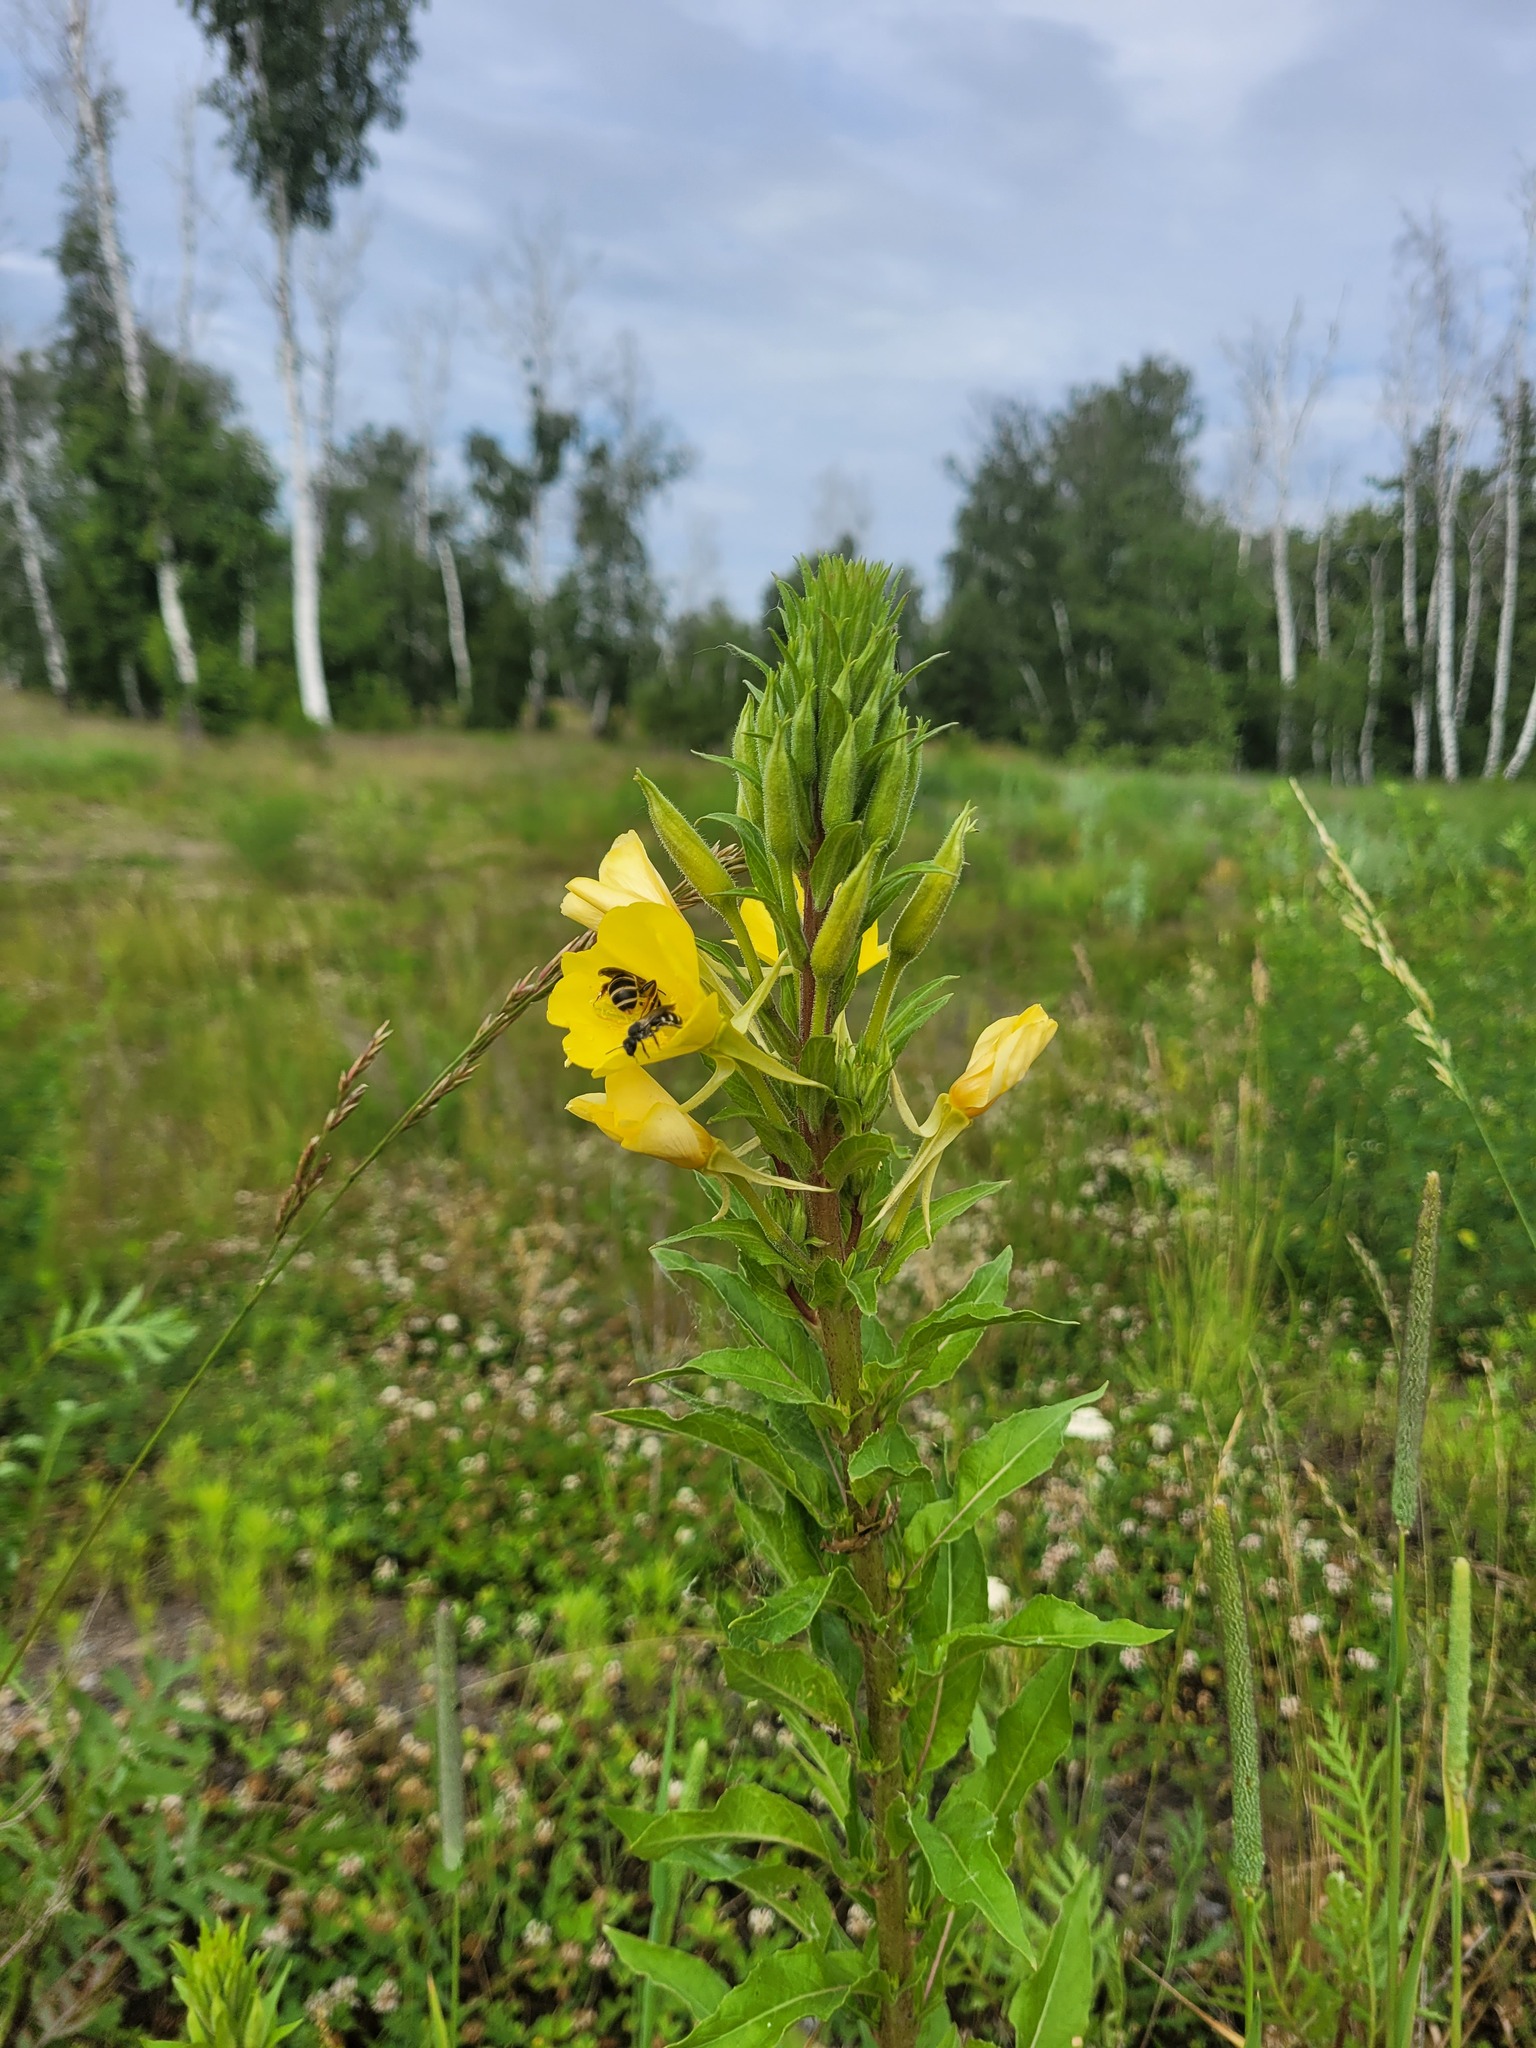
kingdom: Plantae
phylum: Tracheophyta
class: Magnoliopsida
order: Myrtales
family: Onagraceae
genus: Oenothera
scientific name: Oenothera rubricaulis
